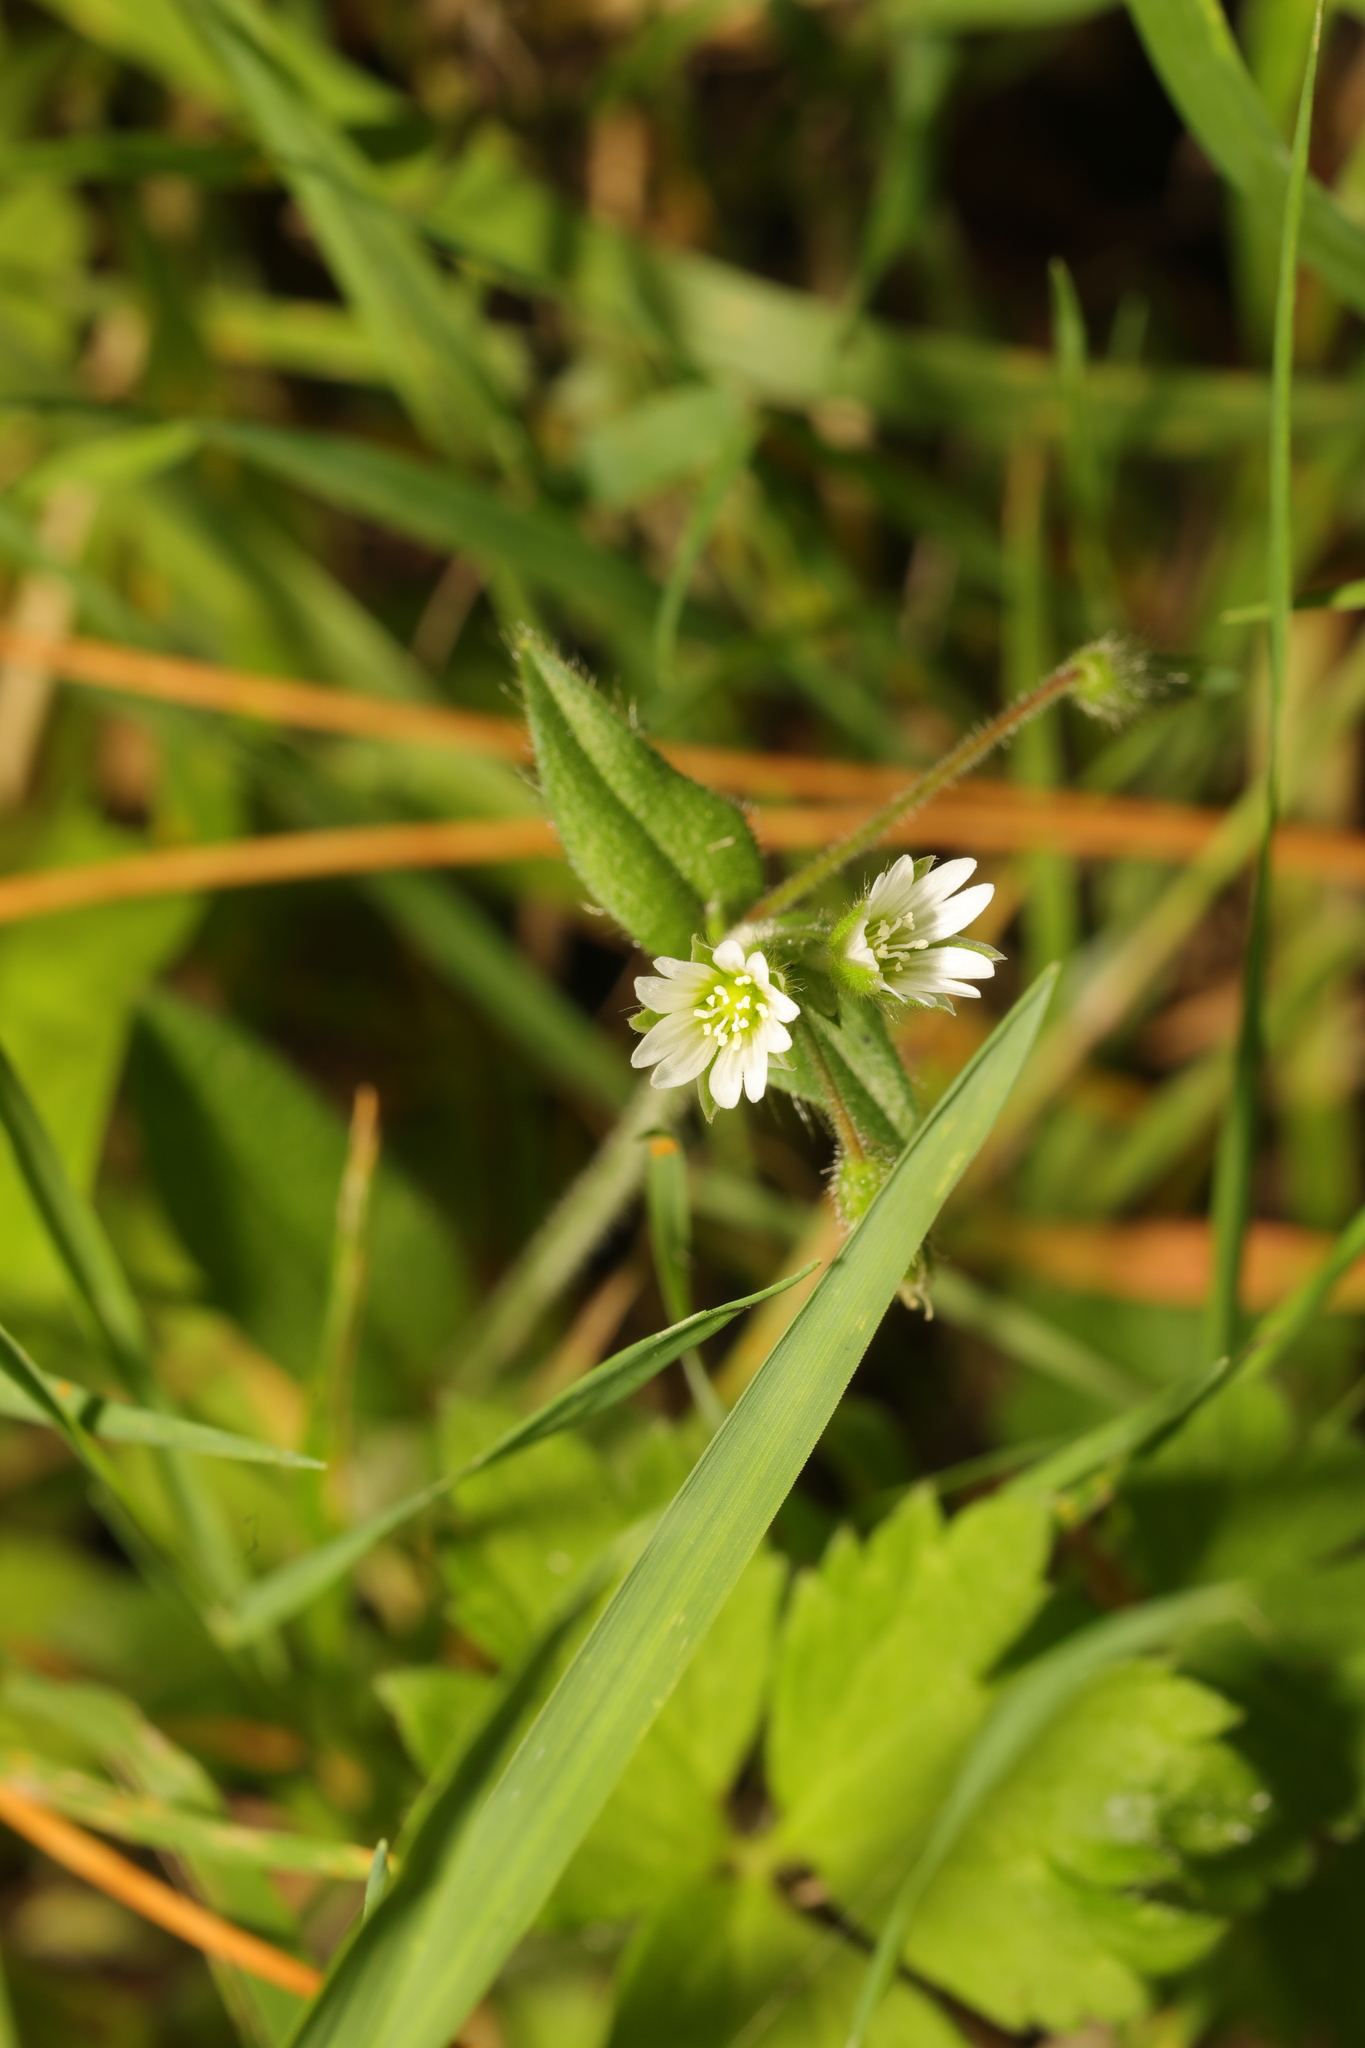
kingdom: Plantae
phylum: Tracheophyta
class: Magnoliopsida
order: Caryophyllales
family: Caryophyllaceae
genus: Cerastium
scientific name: Cerastium fontanum
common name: Common mouse-ear
